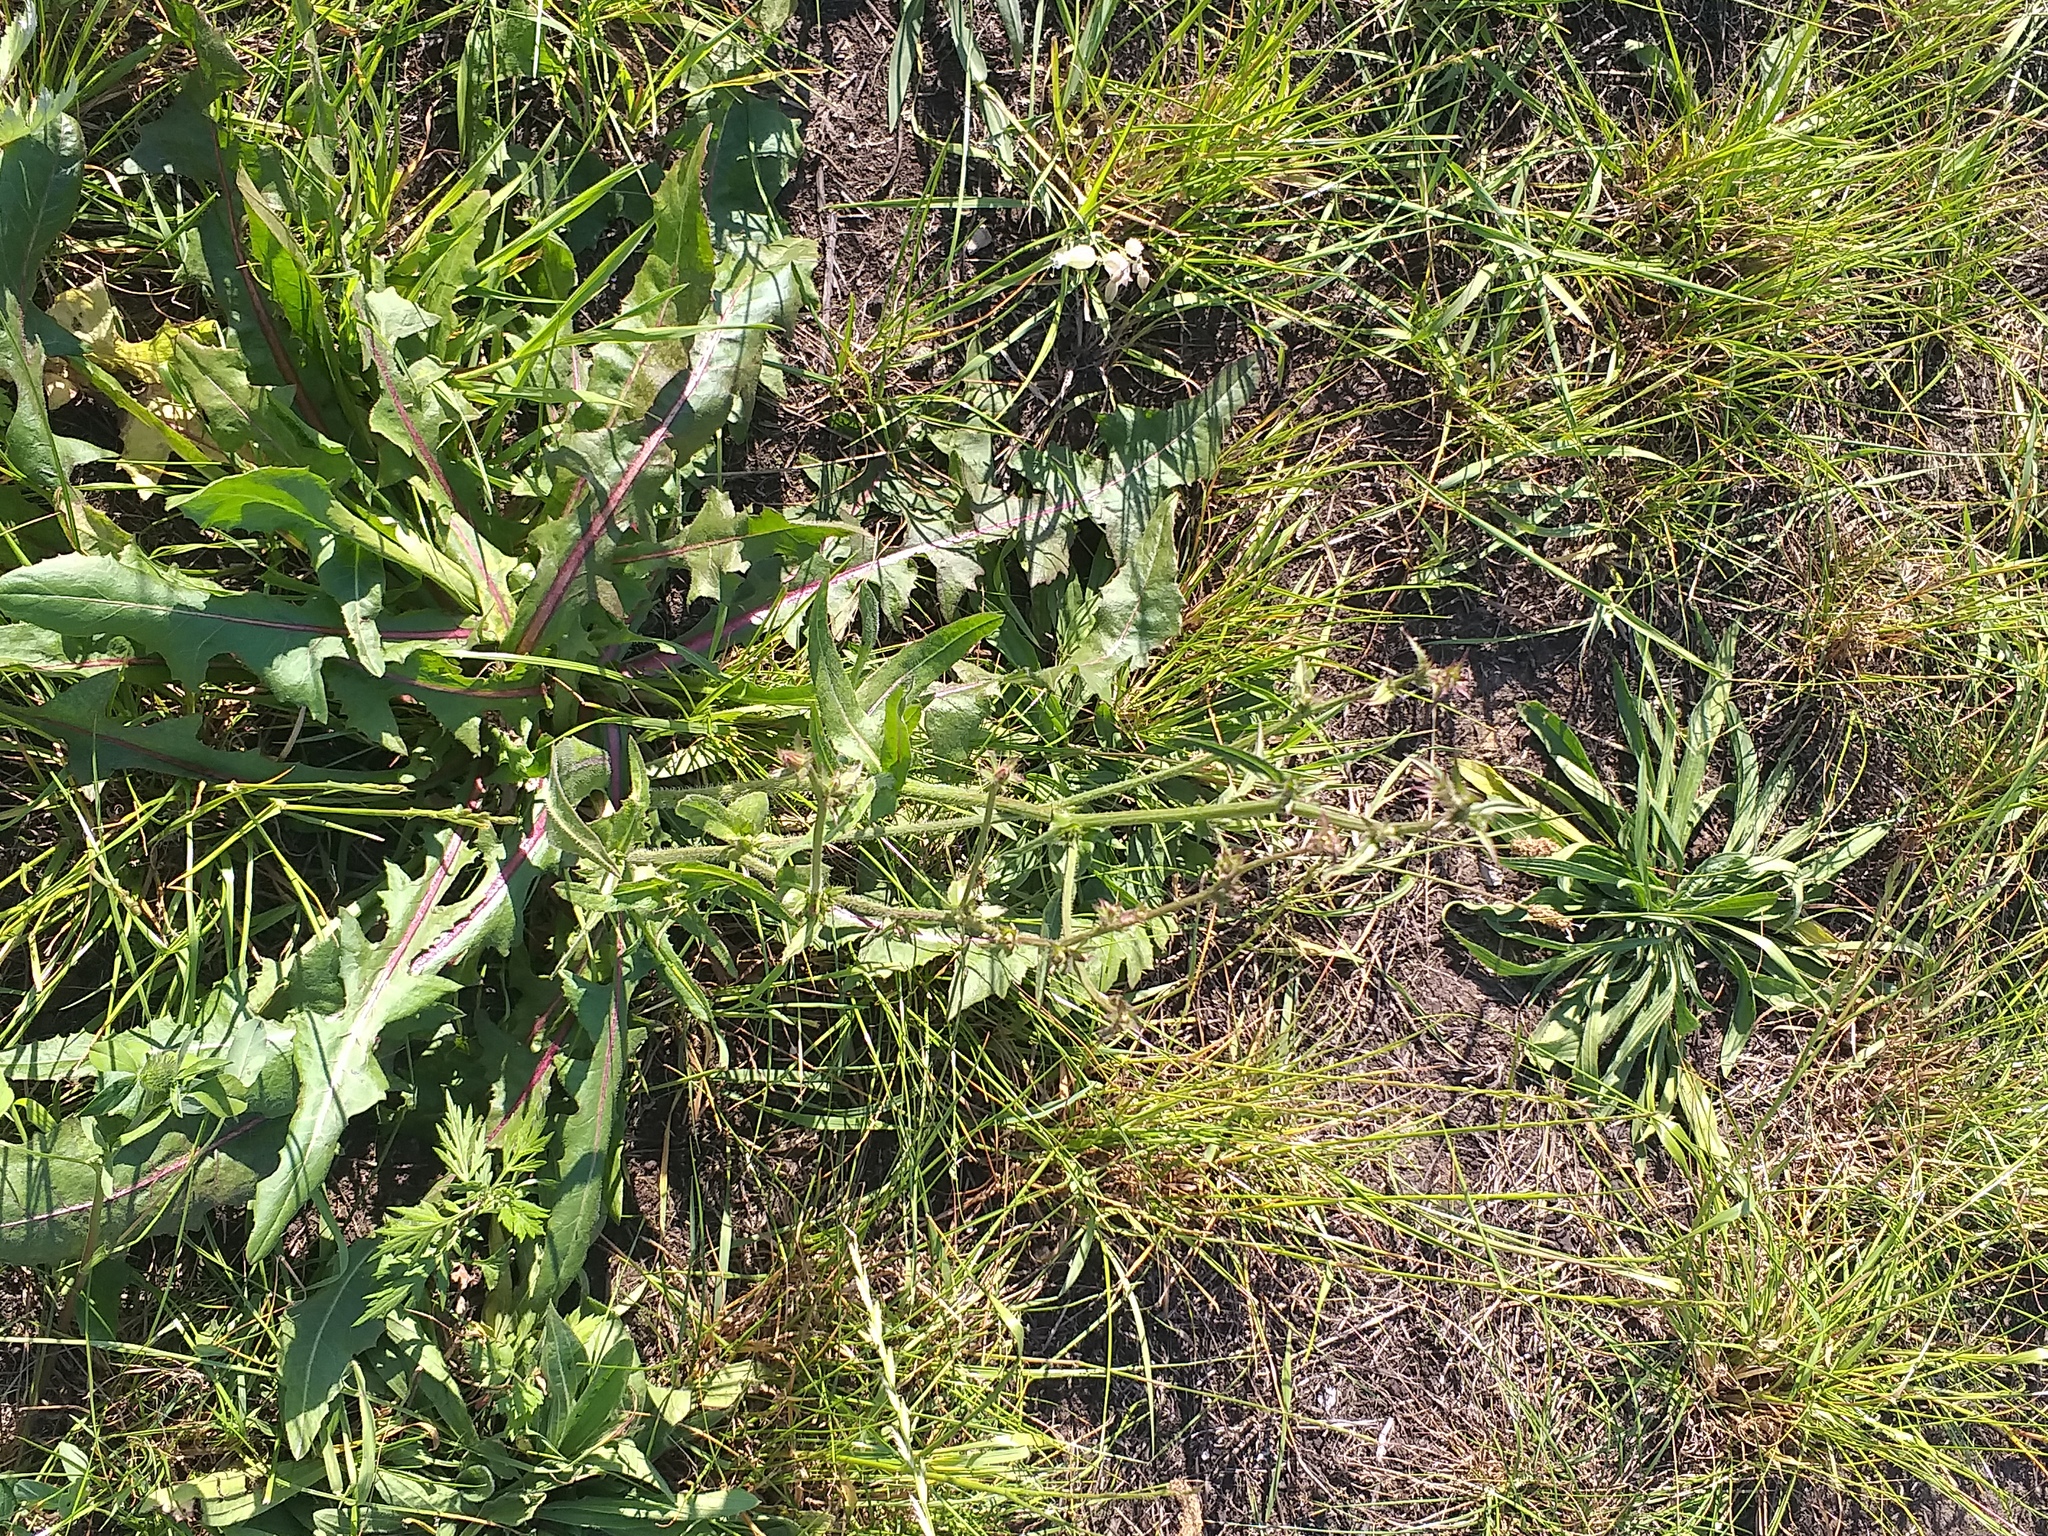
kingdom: Plantae
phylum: Tracheophyta
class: Magnoliopsida
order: Asterales
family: Asteraceae
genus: Cichorium
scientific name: Cichorium intybus
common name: Chicory
